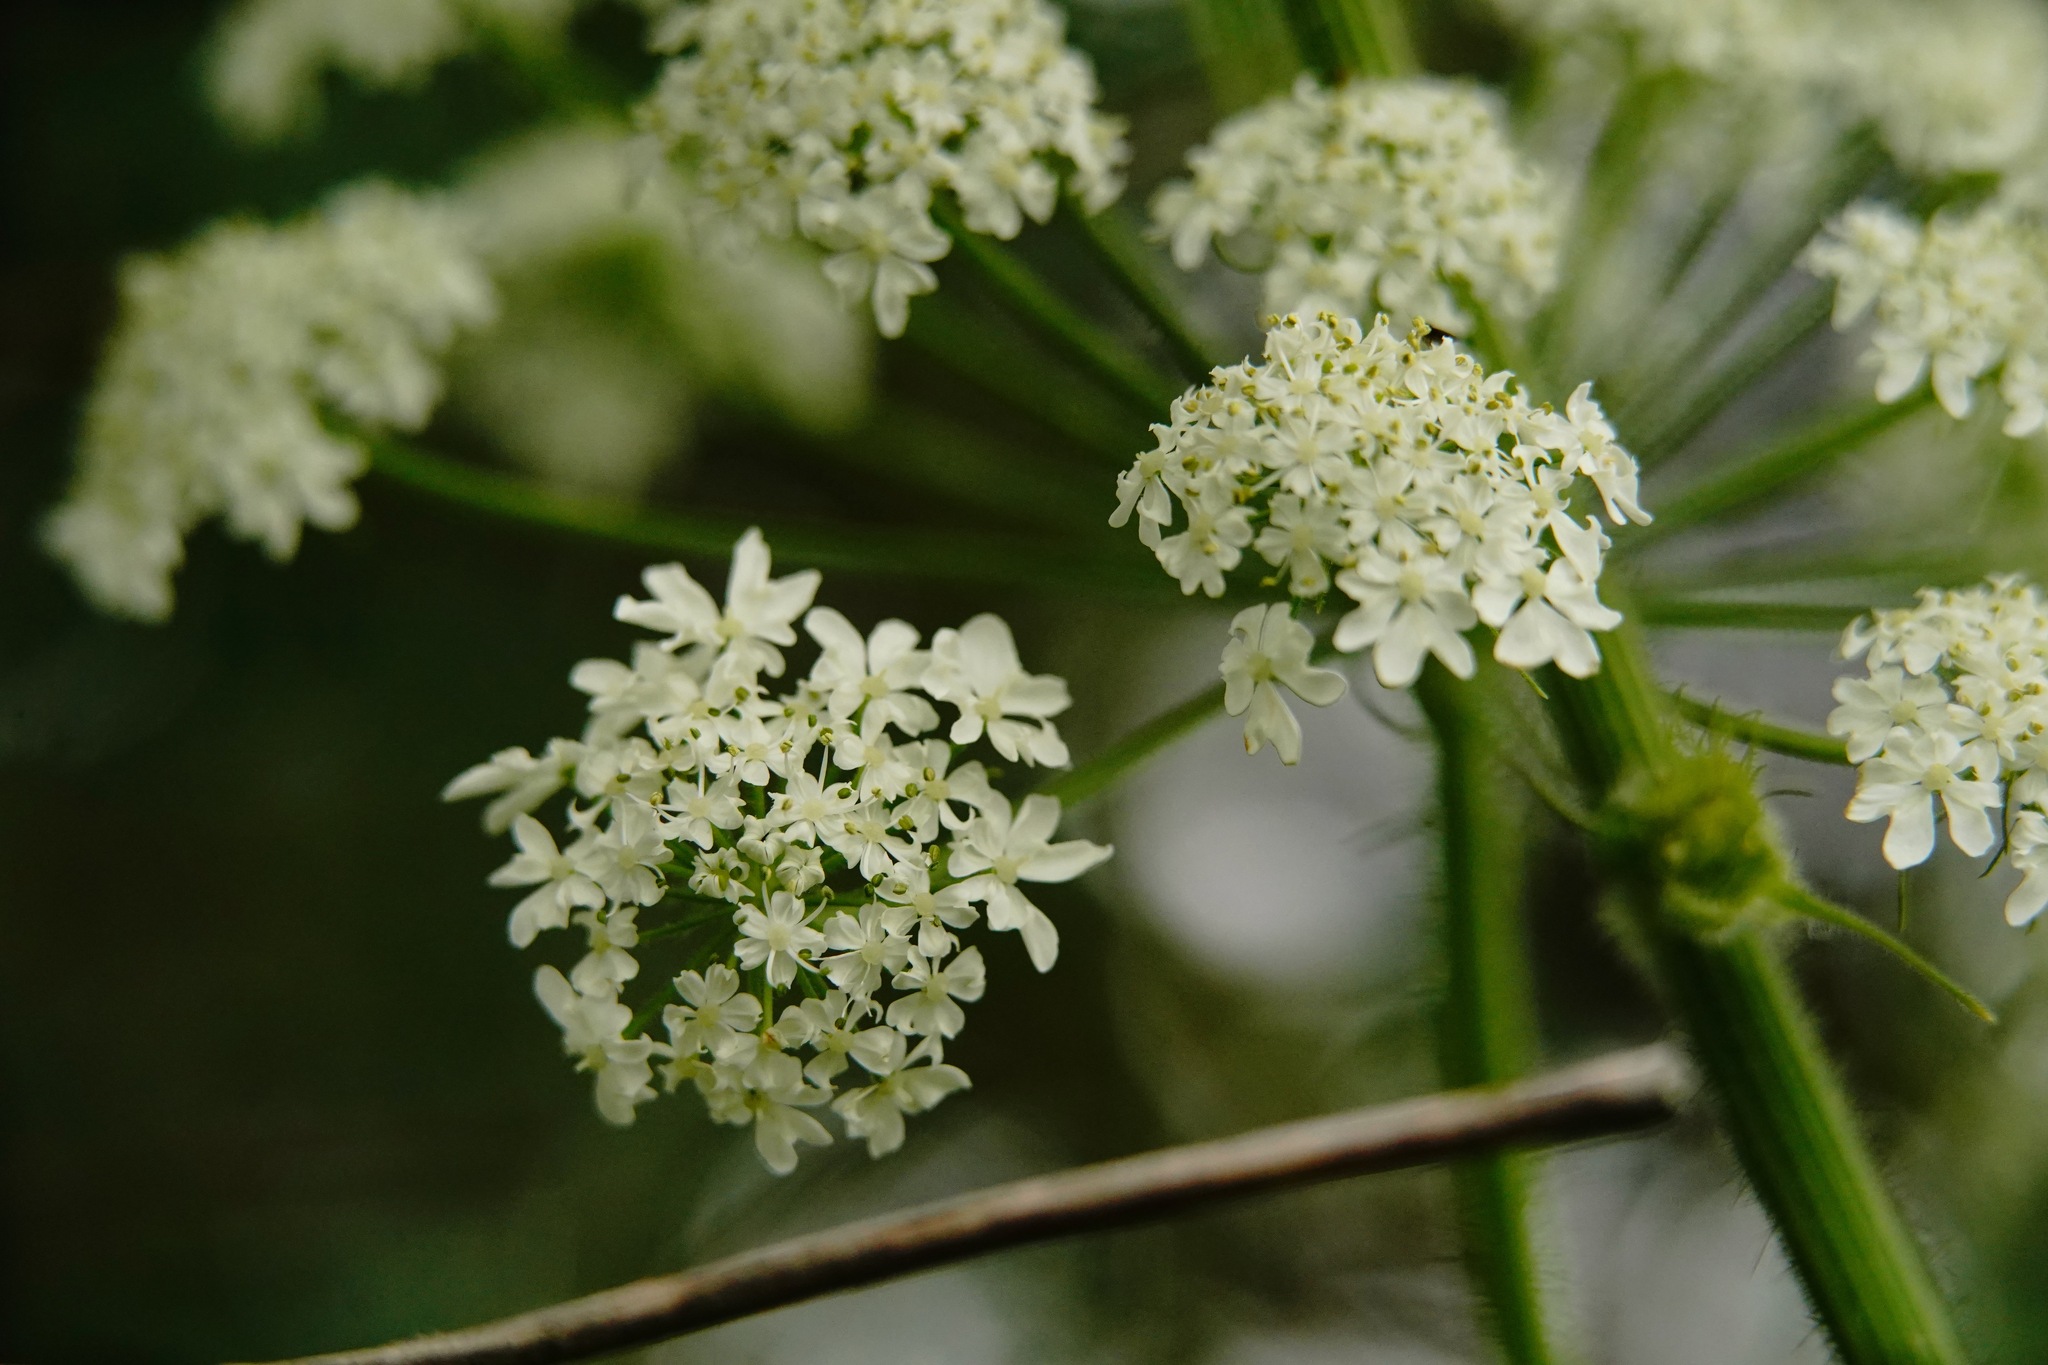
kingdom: Plantae
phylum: Tracheophyta
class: Magnoliopsida
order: Apiales
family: Apiaceae
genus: Heracleum
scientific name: Heracleum maximum
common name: American cow parsnip
